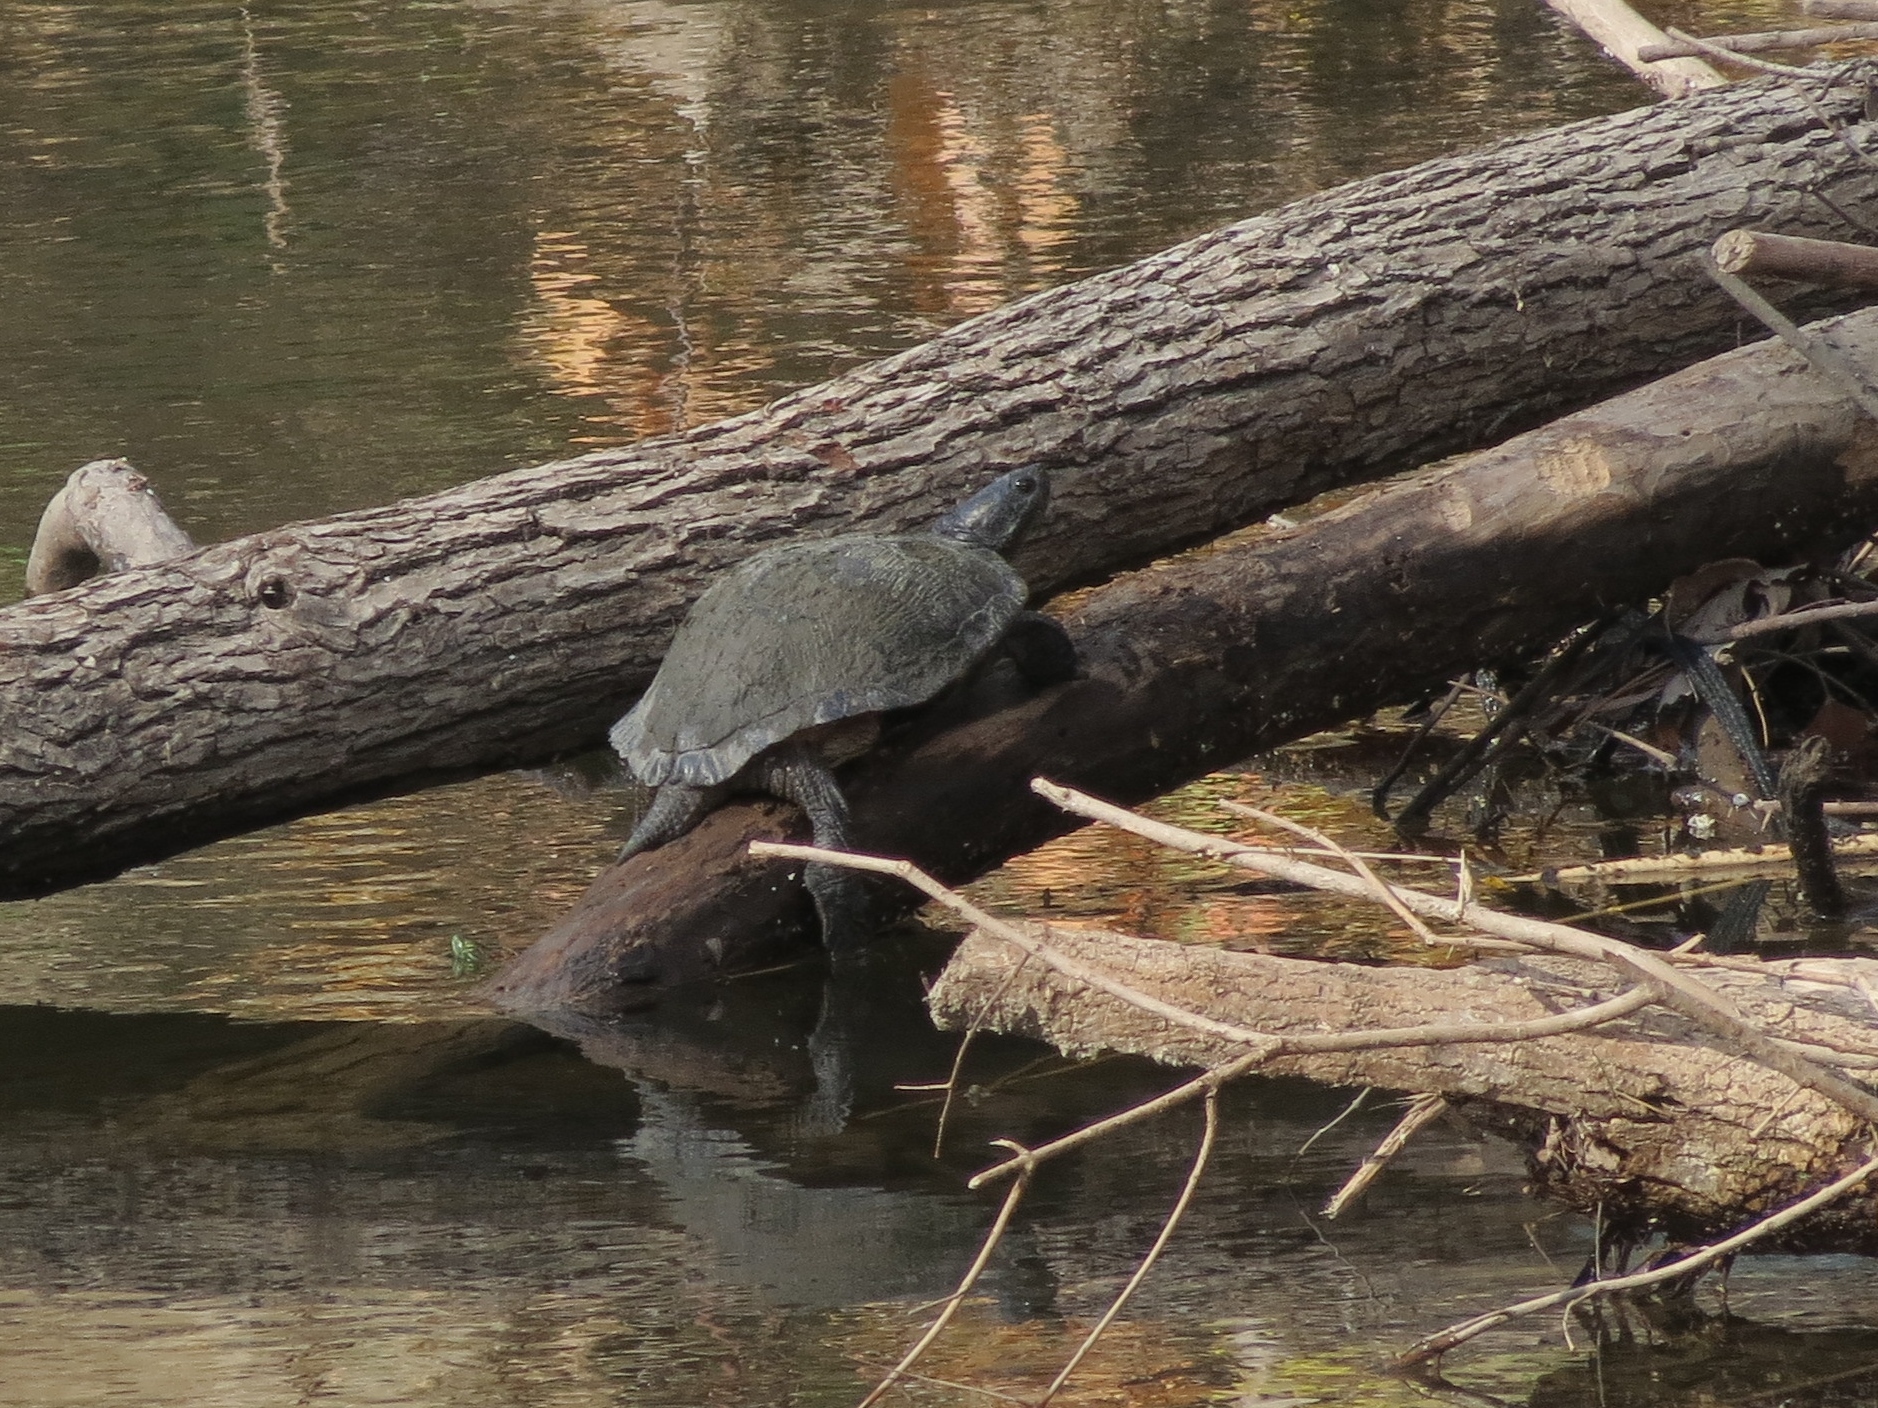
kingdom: Animalia
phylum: Chordata
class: Testudines
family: Emydidae
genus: Trachemys
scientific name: Trachemys scripta
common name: Slider
